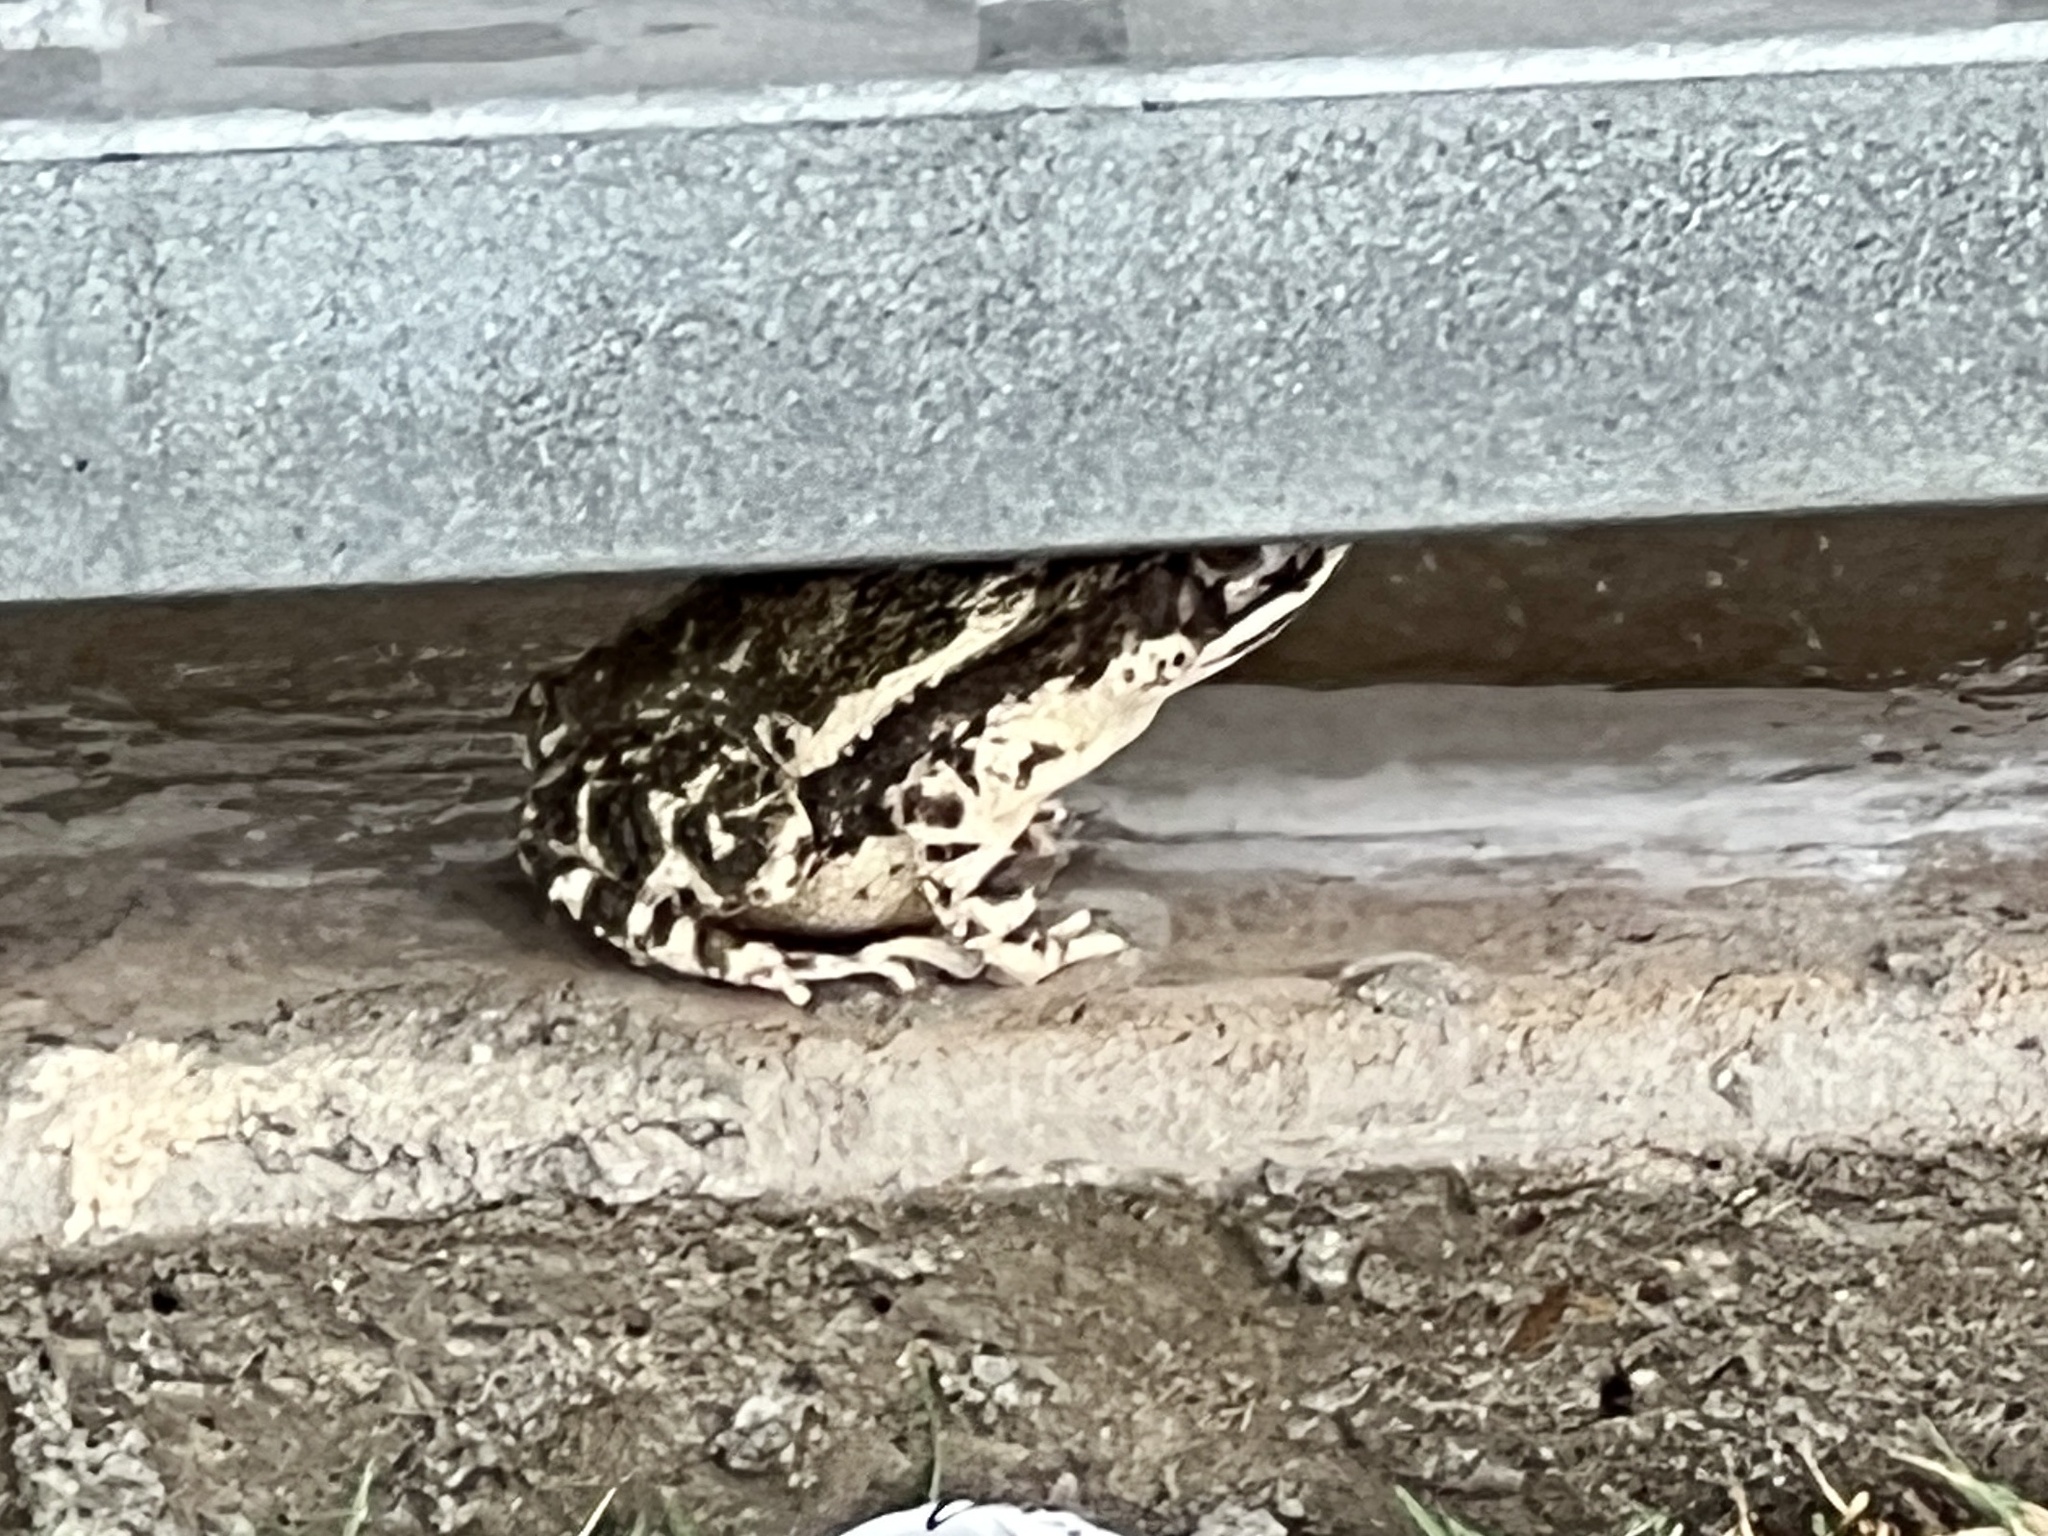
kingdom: Animalia
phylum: Chordata
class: Amphibia
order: Anura
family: Bufonidae
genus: Incilius
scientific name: Incilius nebulifer
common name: Gulf coast toad
